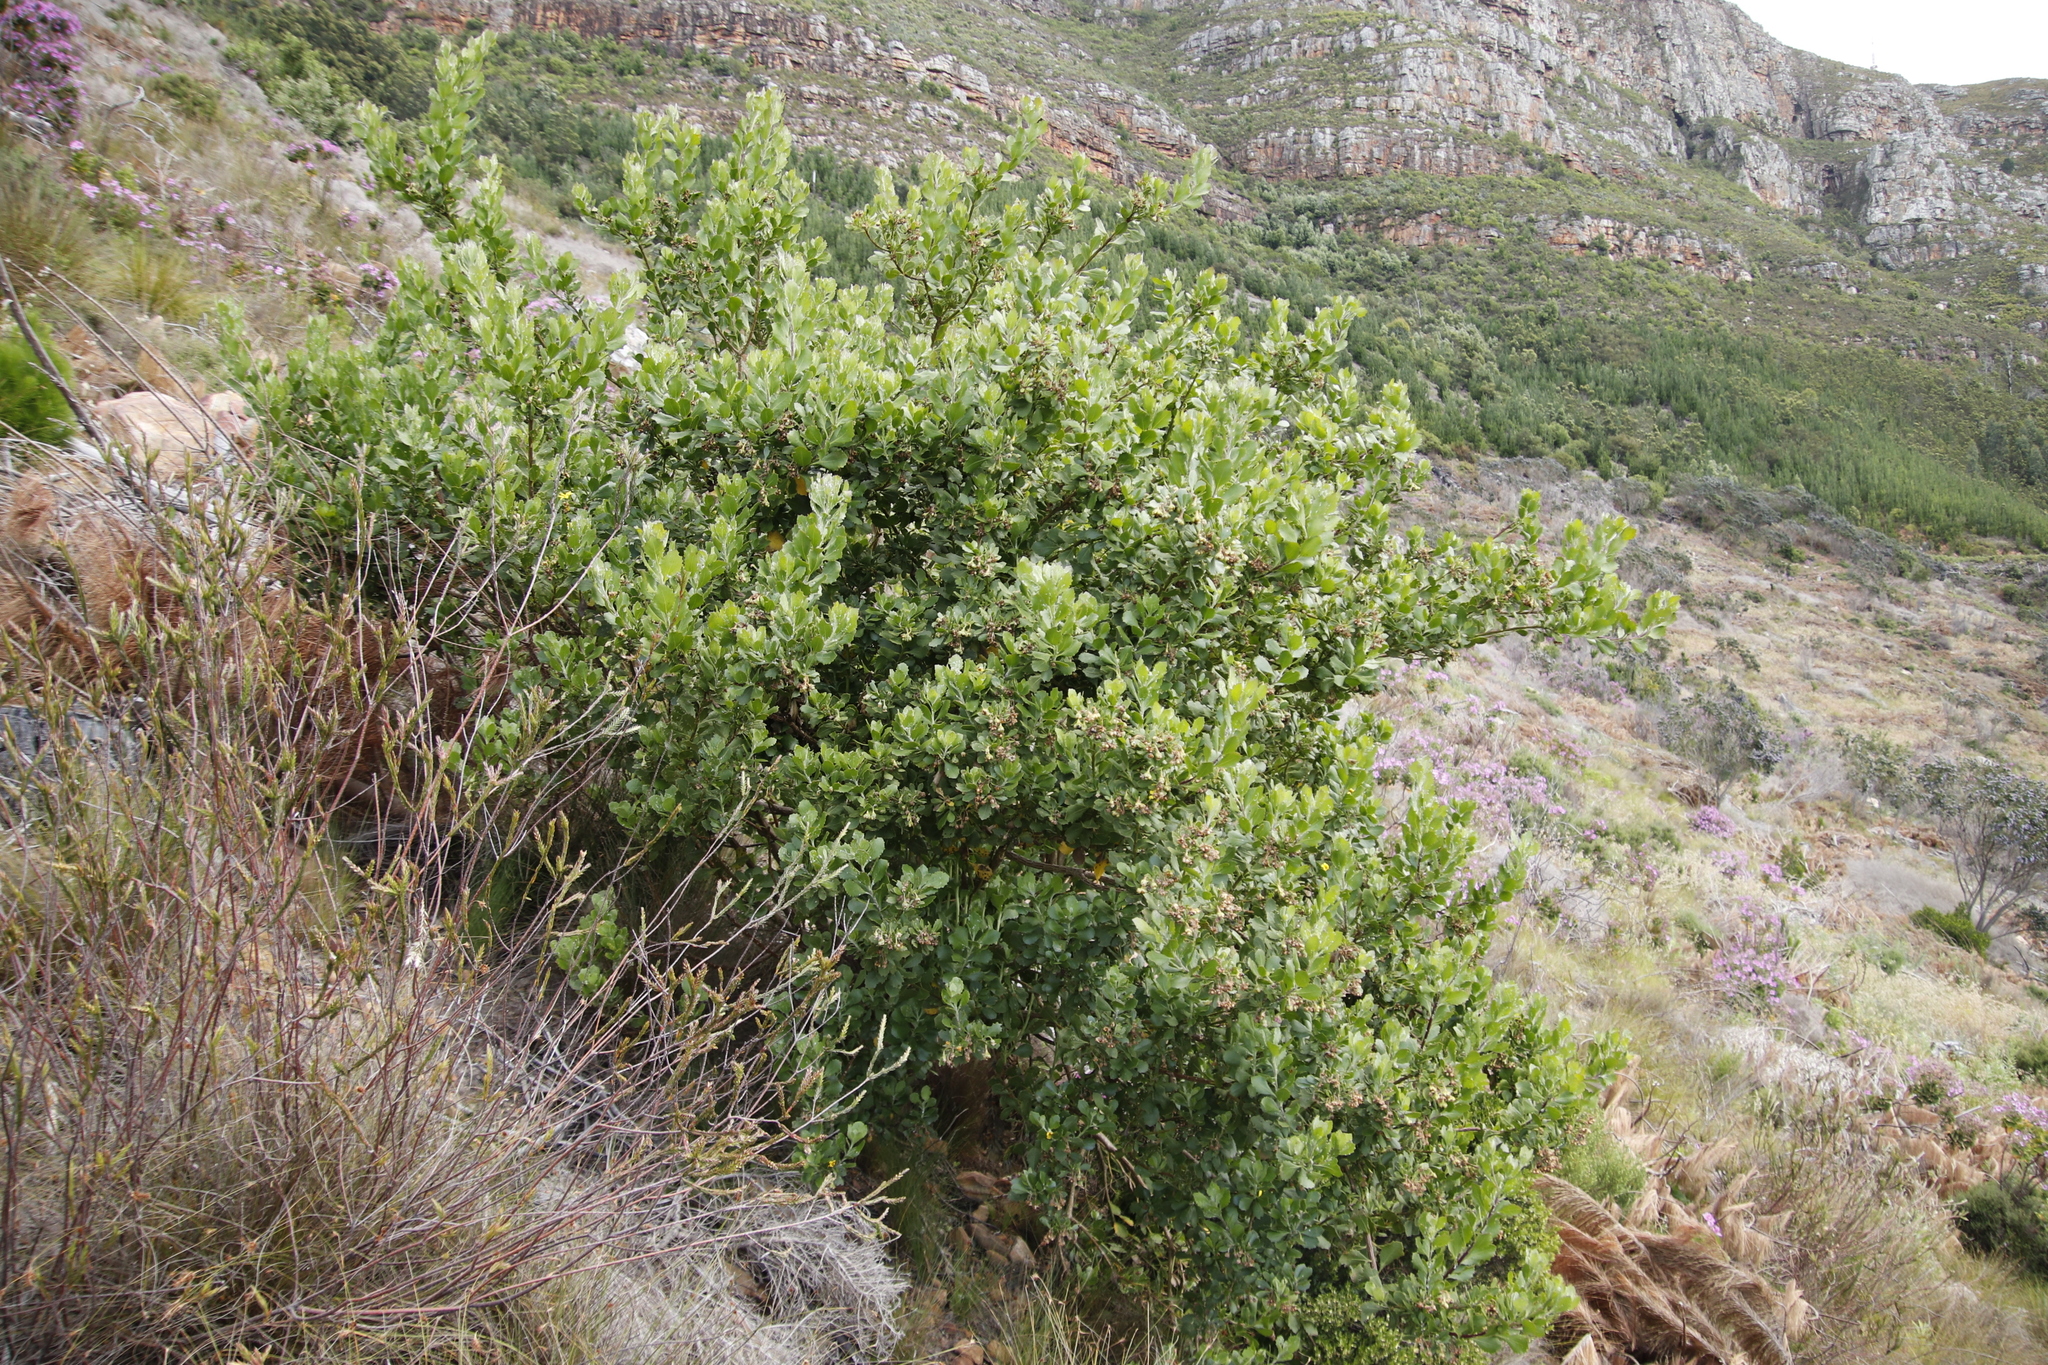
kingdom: Plantae
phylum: Tracheophyta
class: Magnoliopsida
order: Asterales
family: Asteraceae
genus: Osteospermum
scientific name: Osteospermum moniliferum
